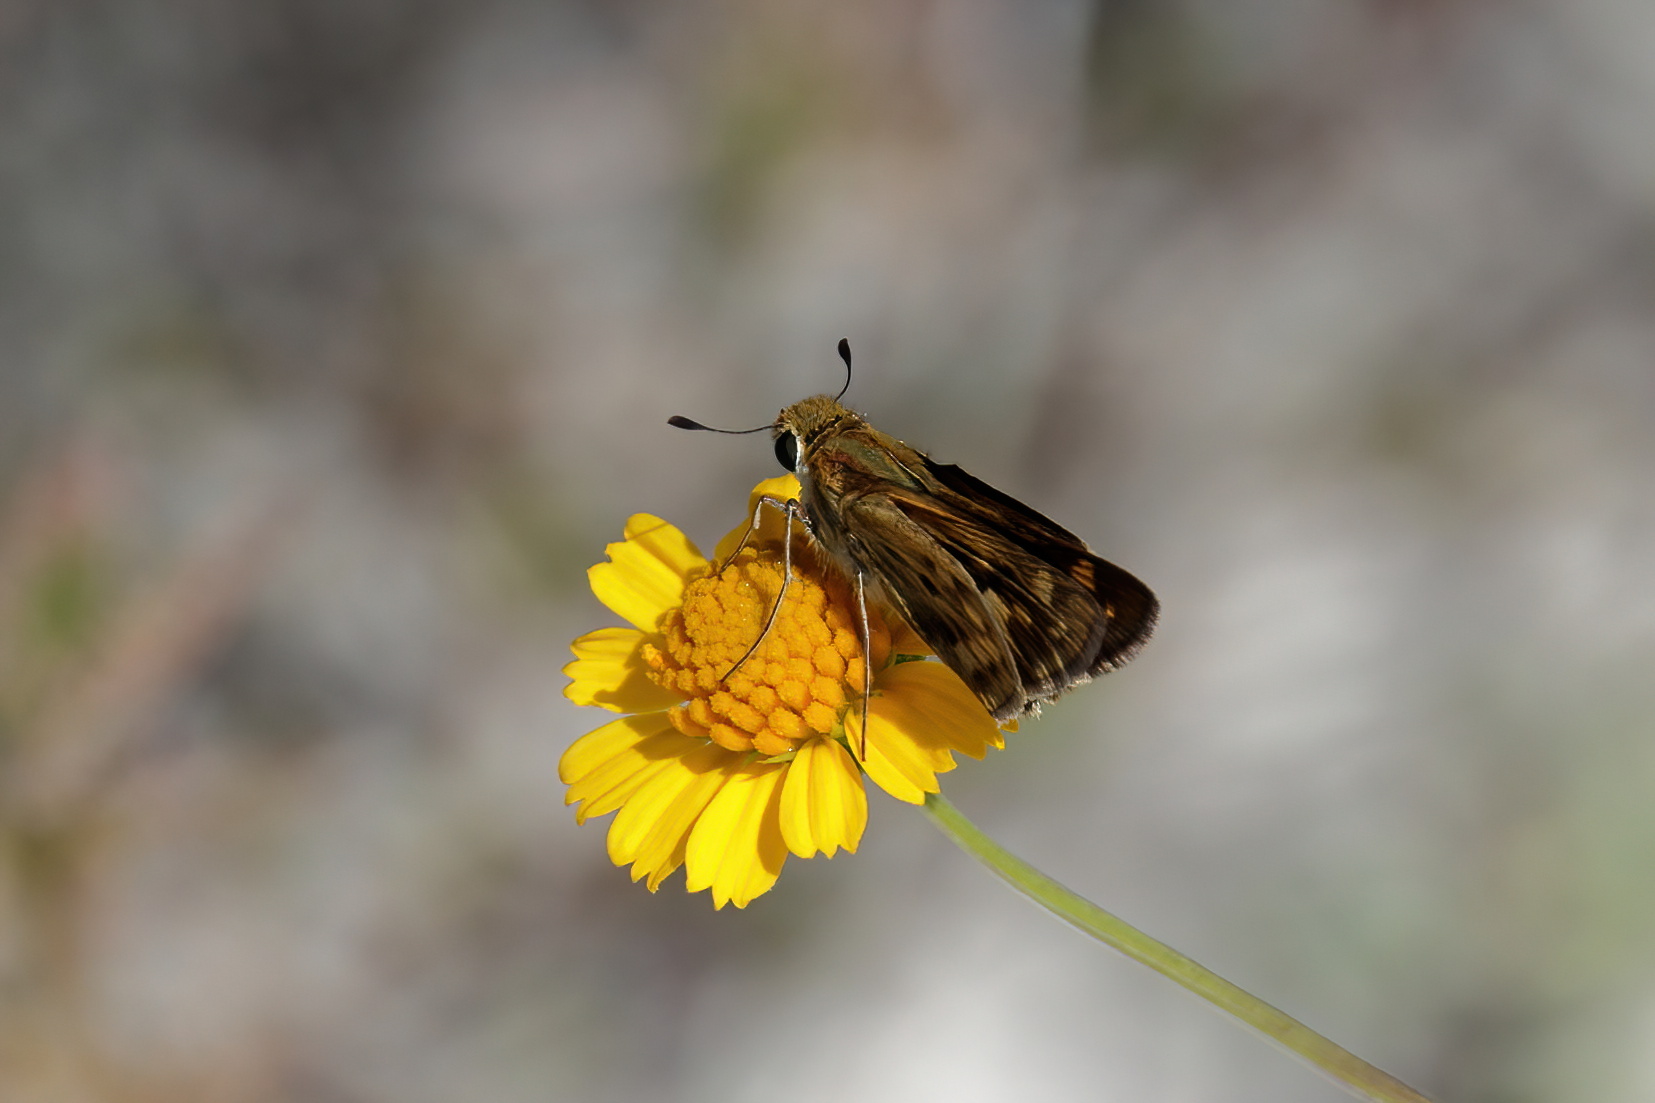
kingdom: Animalia
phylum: Arthropoda
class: Insecta
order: Lepidoptera
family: Hesperiidae
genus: Hylephila
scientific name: Hylephila phyleus
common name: Fiery skipper
